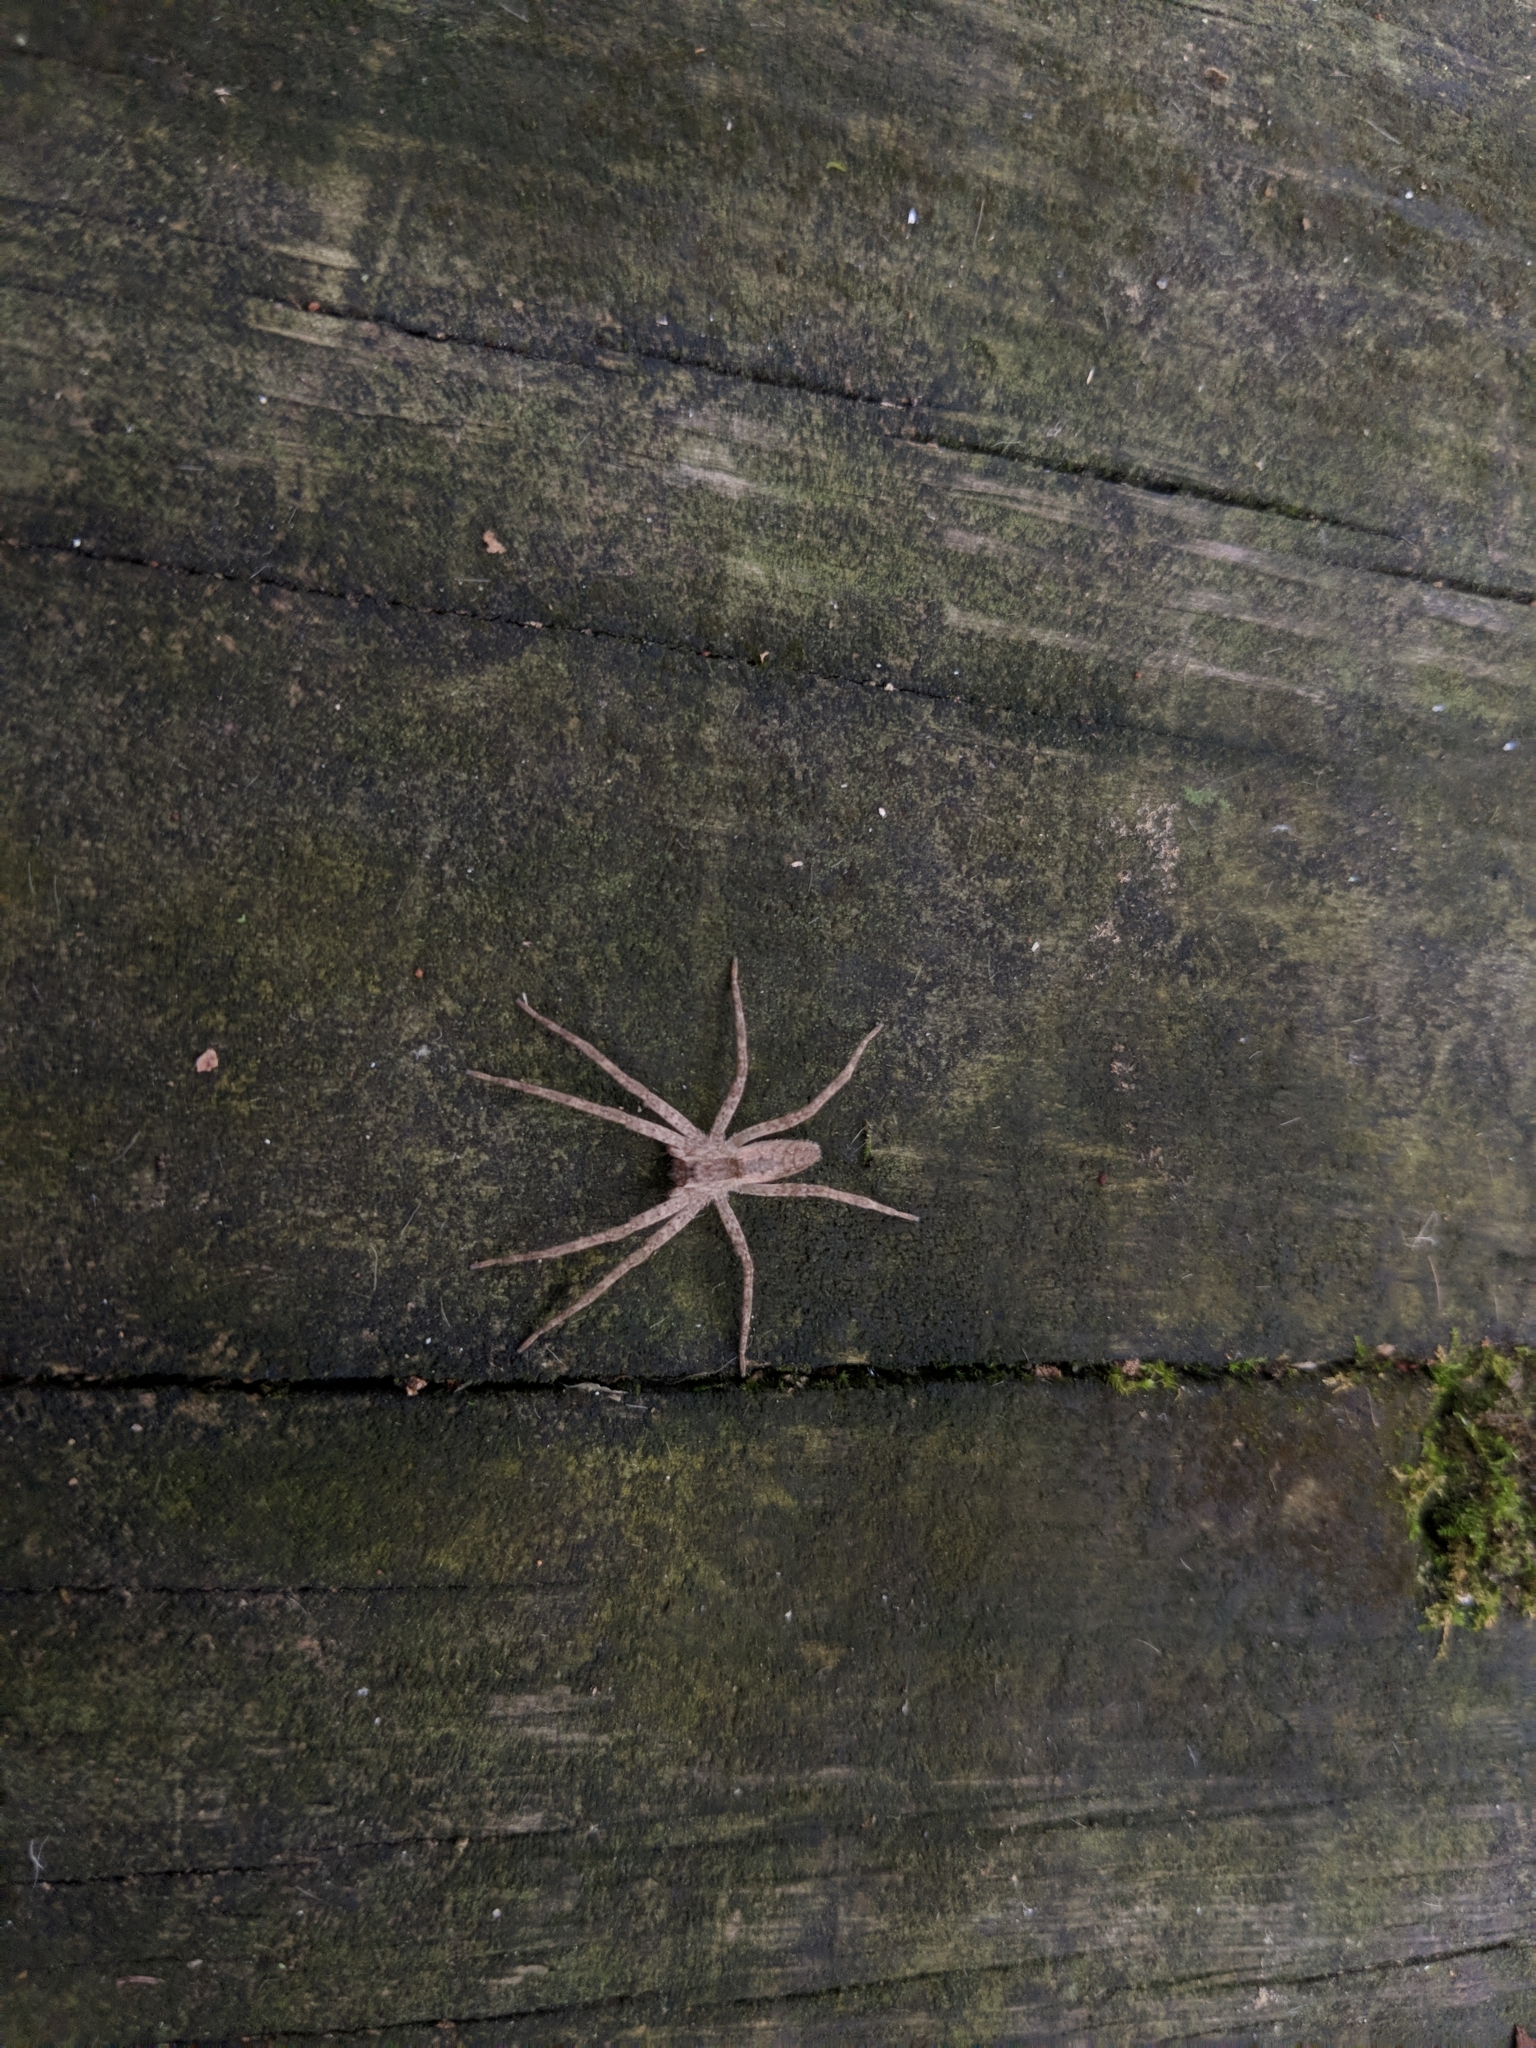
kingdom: Animalia
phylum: Arthropoda
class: Arachnida
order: Araneae
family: Pisauridae
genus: Pisaurina
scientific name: Pisaurina mira
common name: American nursery web spider
